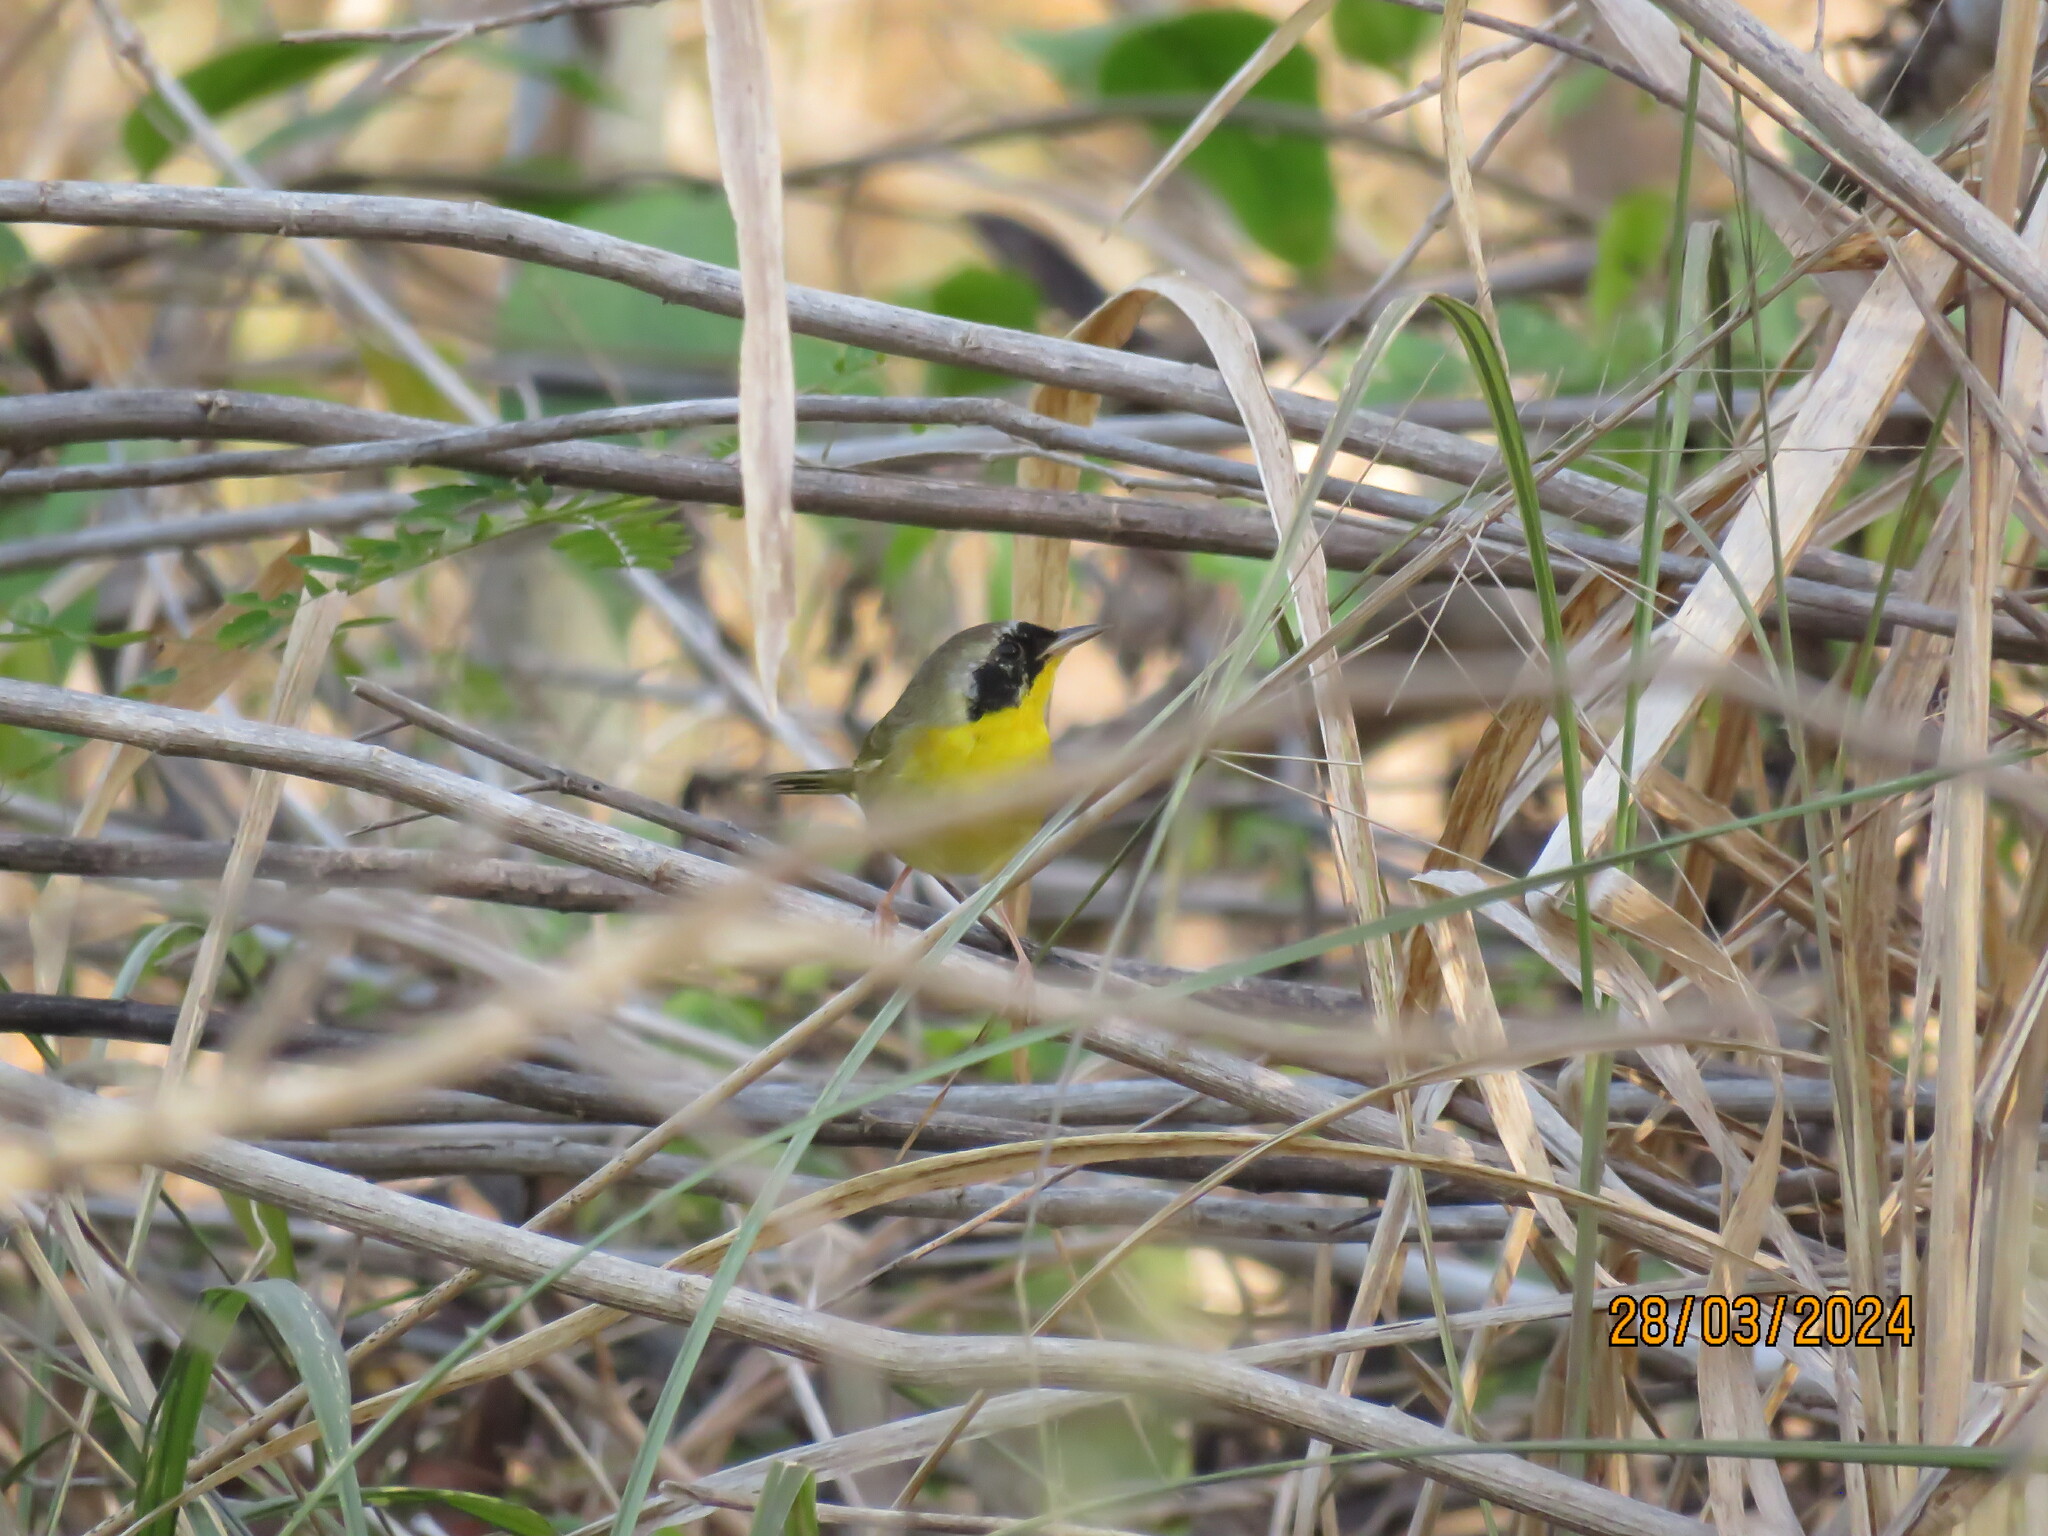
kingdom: Animalia
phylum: Chordata
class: Aves
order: Passeriformes
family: Parulidae
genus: Geothlypis
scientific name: Geothlypis trichas
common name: Common yellowthroat
